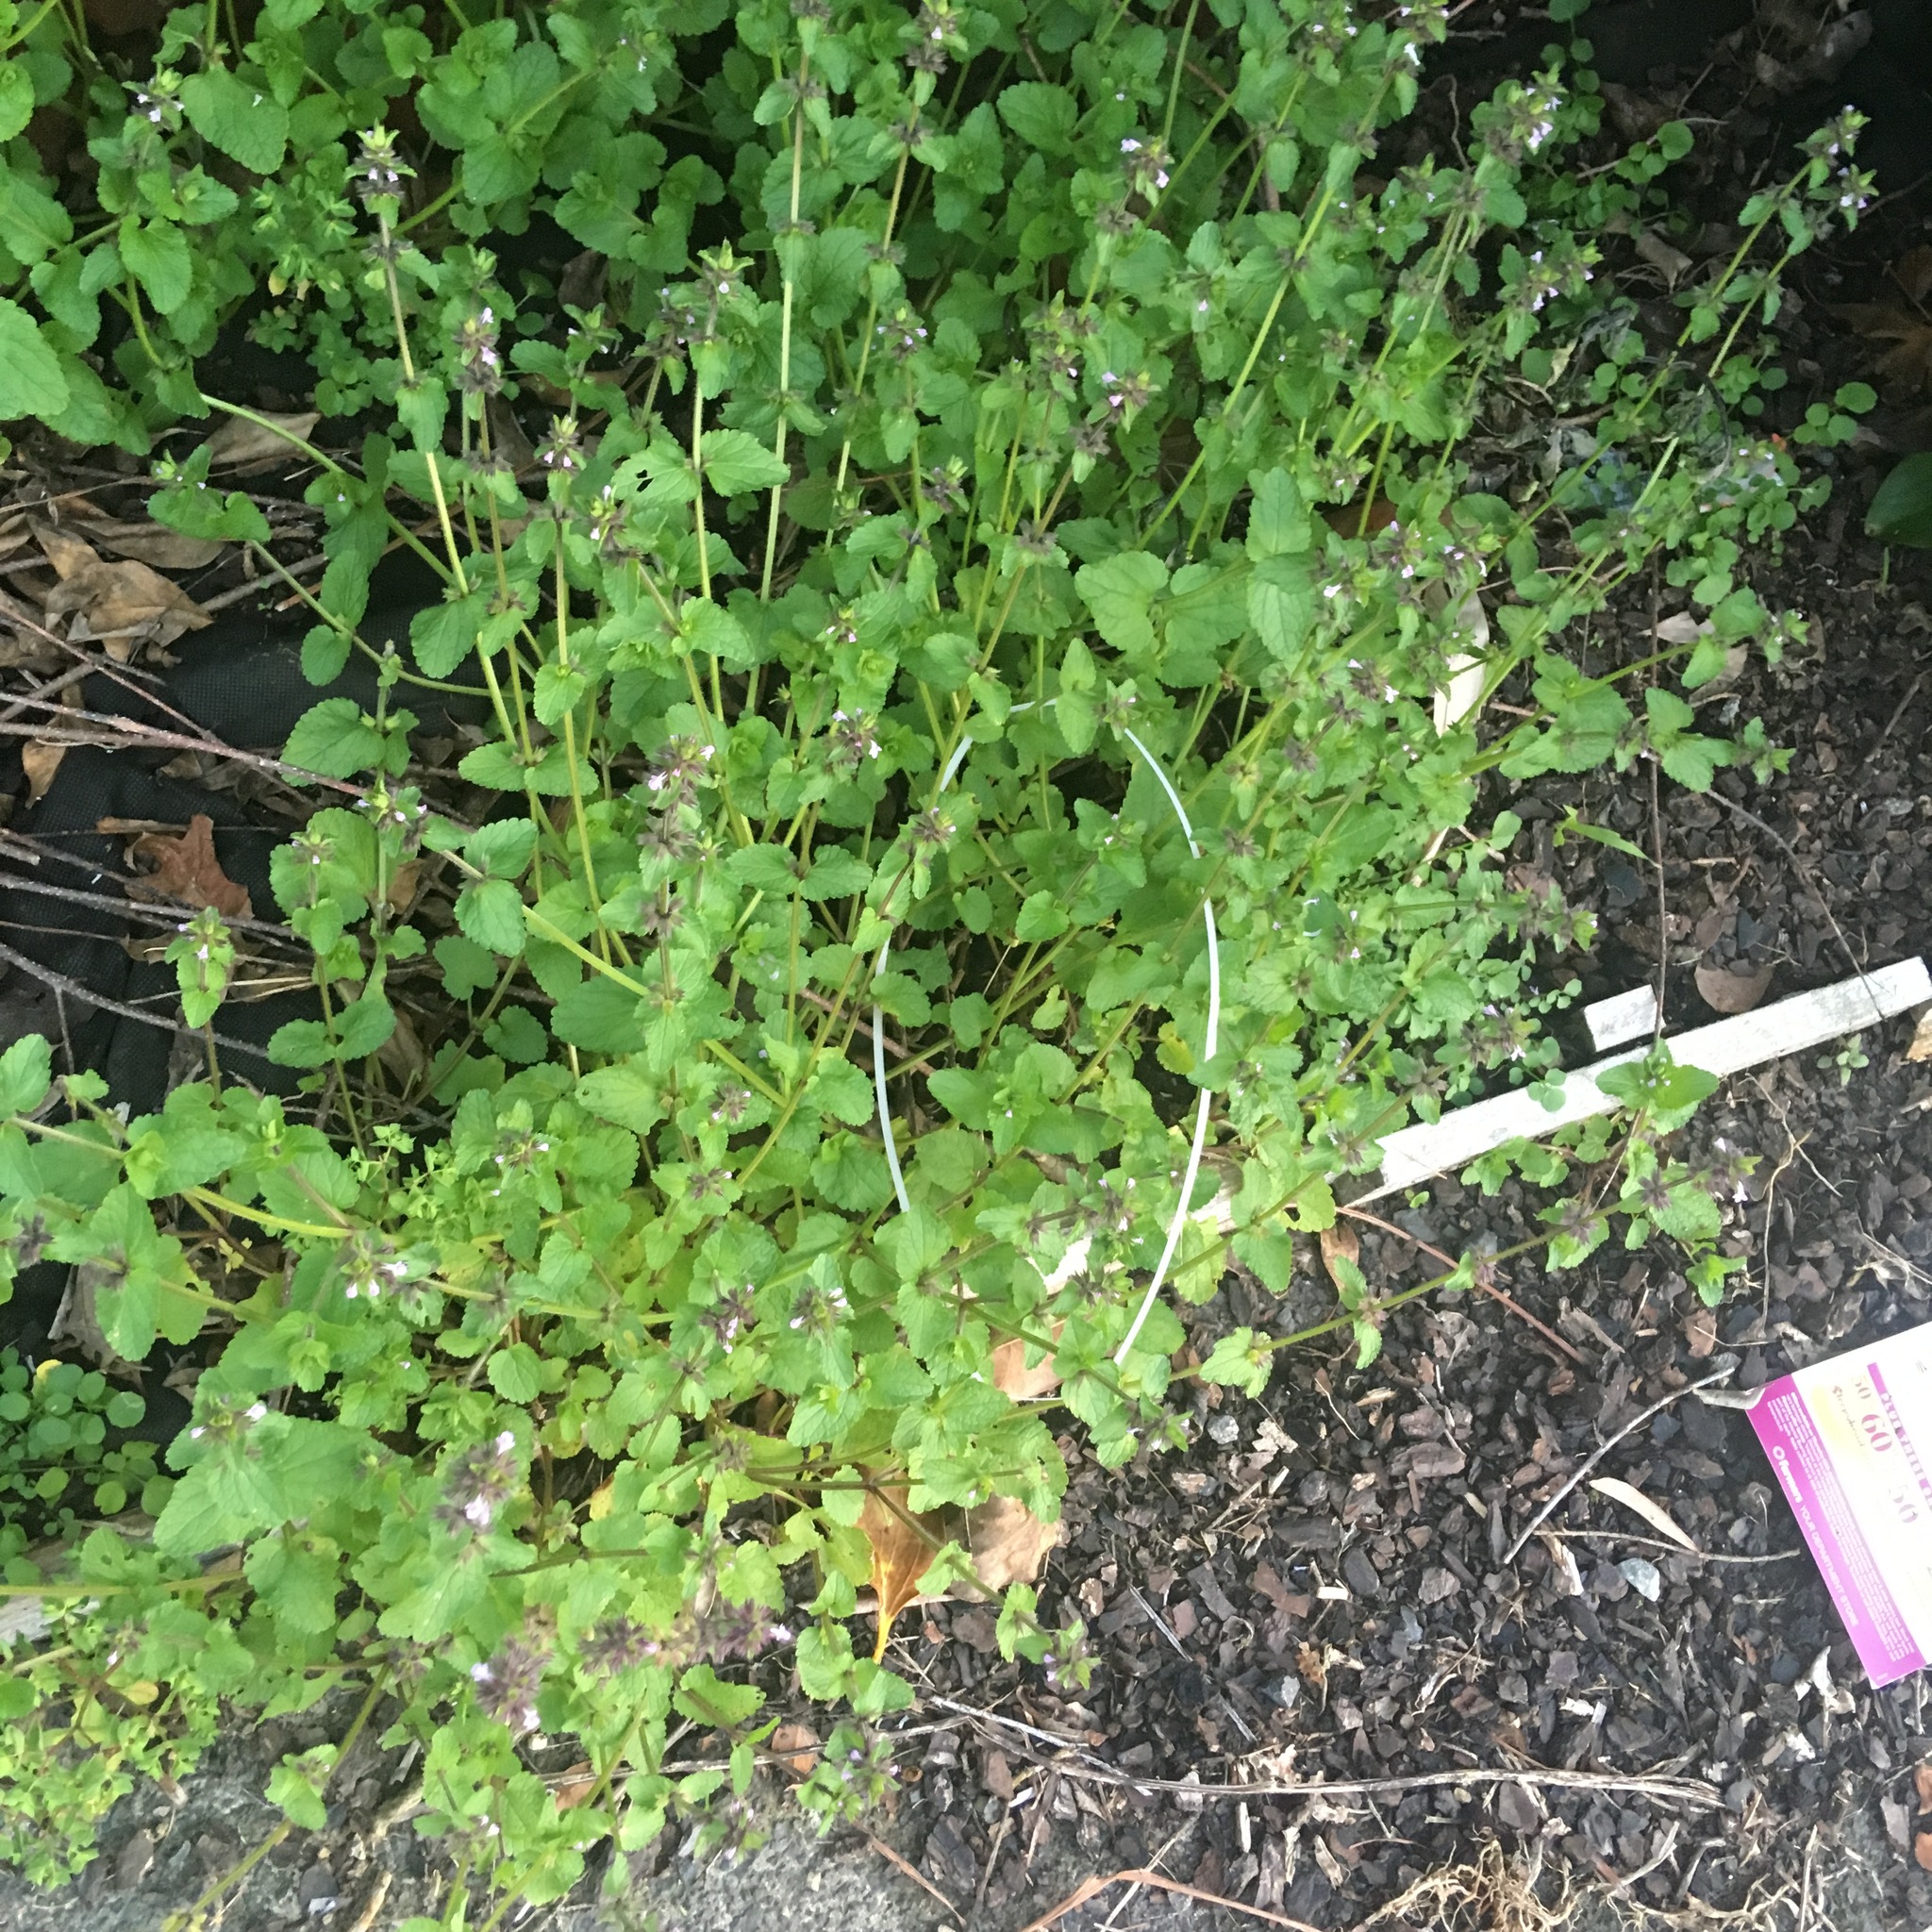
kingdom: Plantae
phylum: Tracheophyta
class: Magnoliopsida
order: Lamiales
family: Lamiaceae
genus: Stachys
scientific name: Stachys arvensis
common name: Field woundwort
